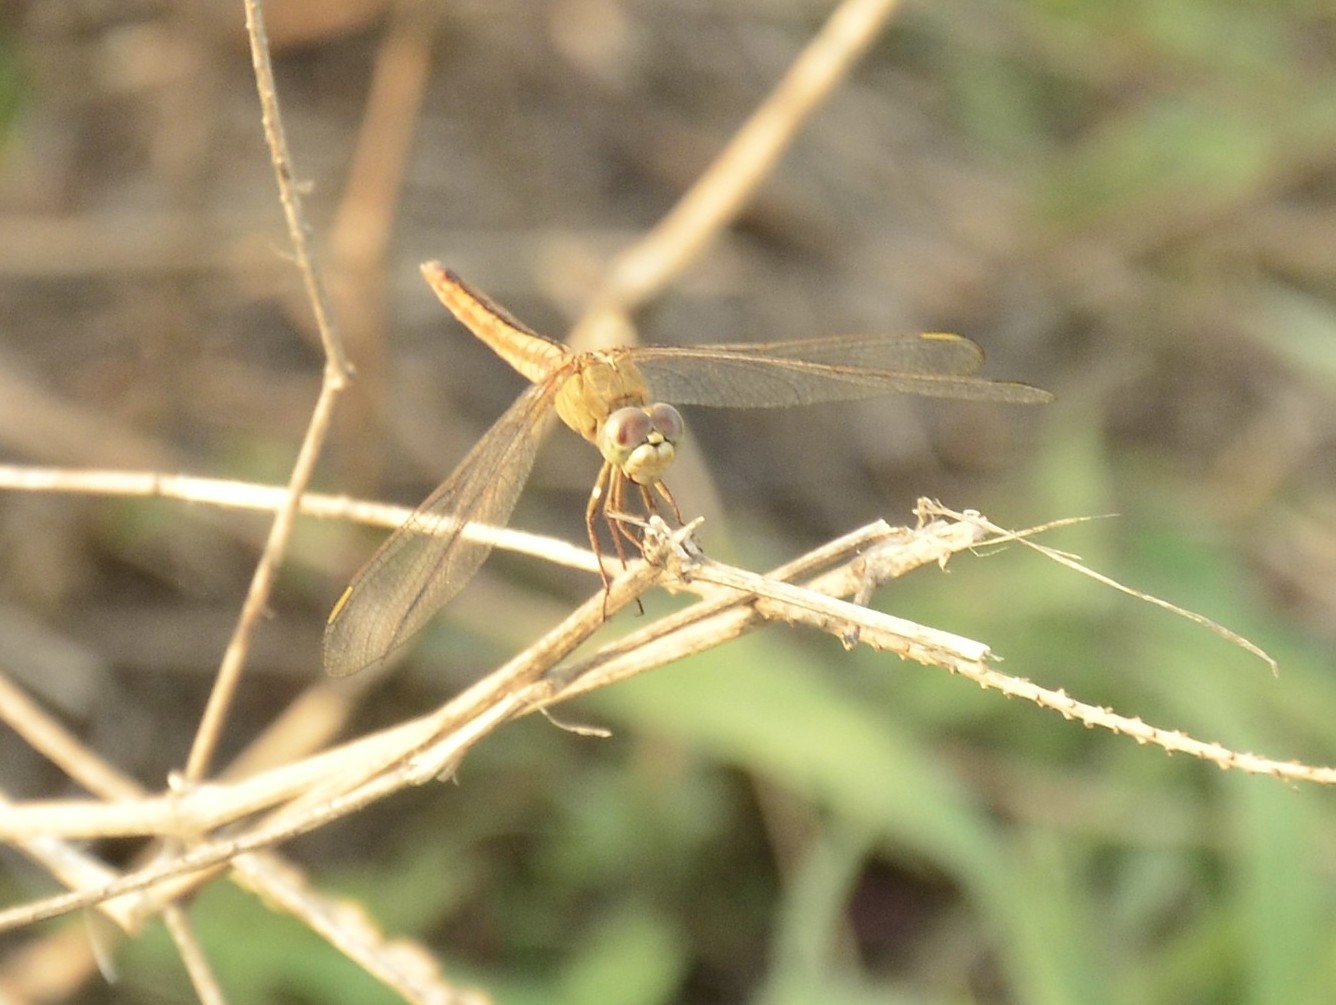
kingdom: Animalia
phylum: Arthropoda
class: Insecta
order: Odonata
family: Libellulidae
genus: Crocothemis
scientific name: Crocothemis servilia
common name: Scarlet skimmer
